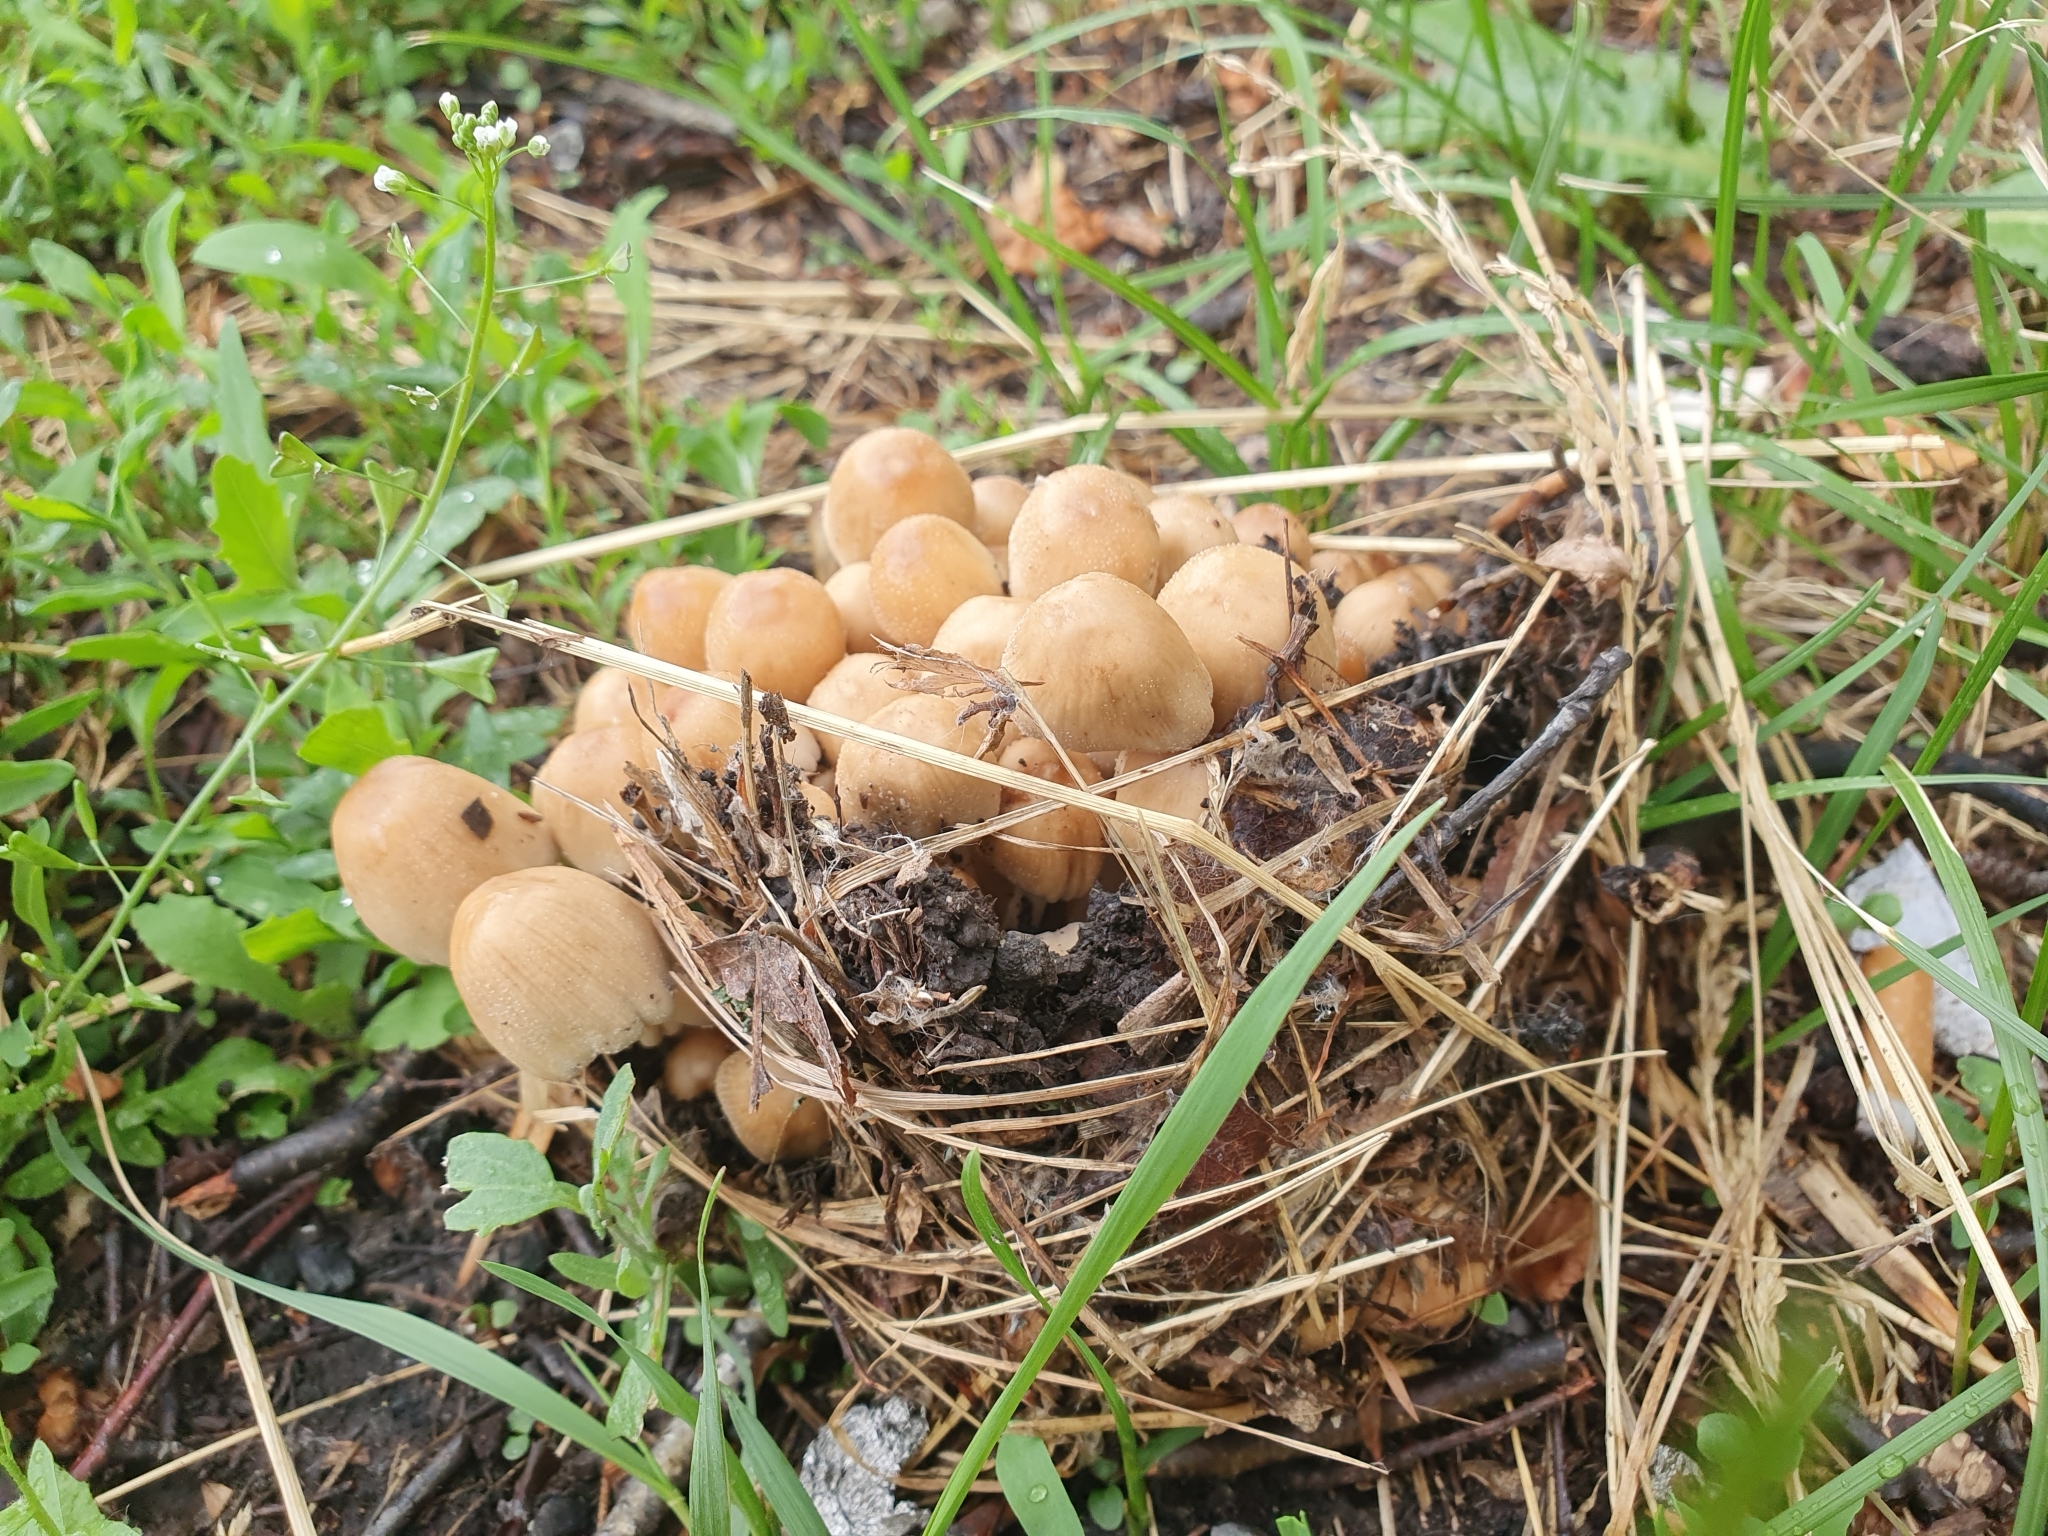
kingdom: Fungi
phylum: Basidiomycota
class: Agaricomycetes
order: Agaricales
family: Psathyrellaceae
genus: Coprinellus
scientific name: Coprinellus micaceus
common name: Glistening ink-cap
